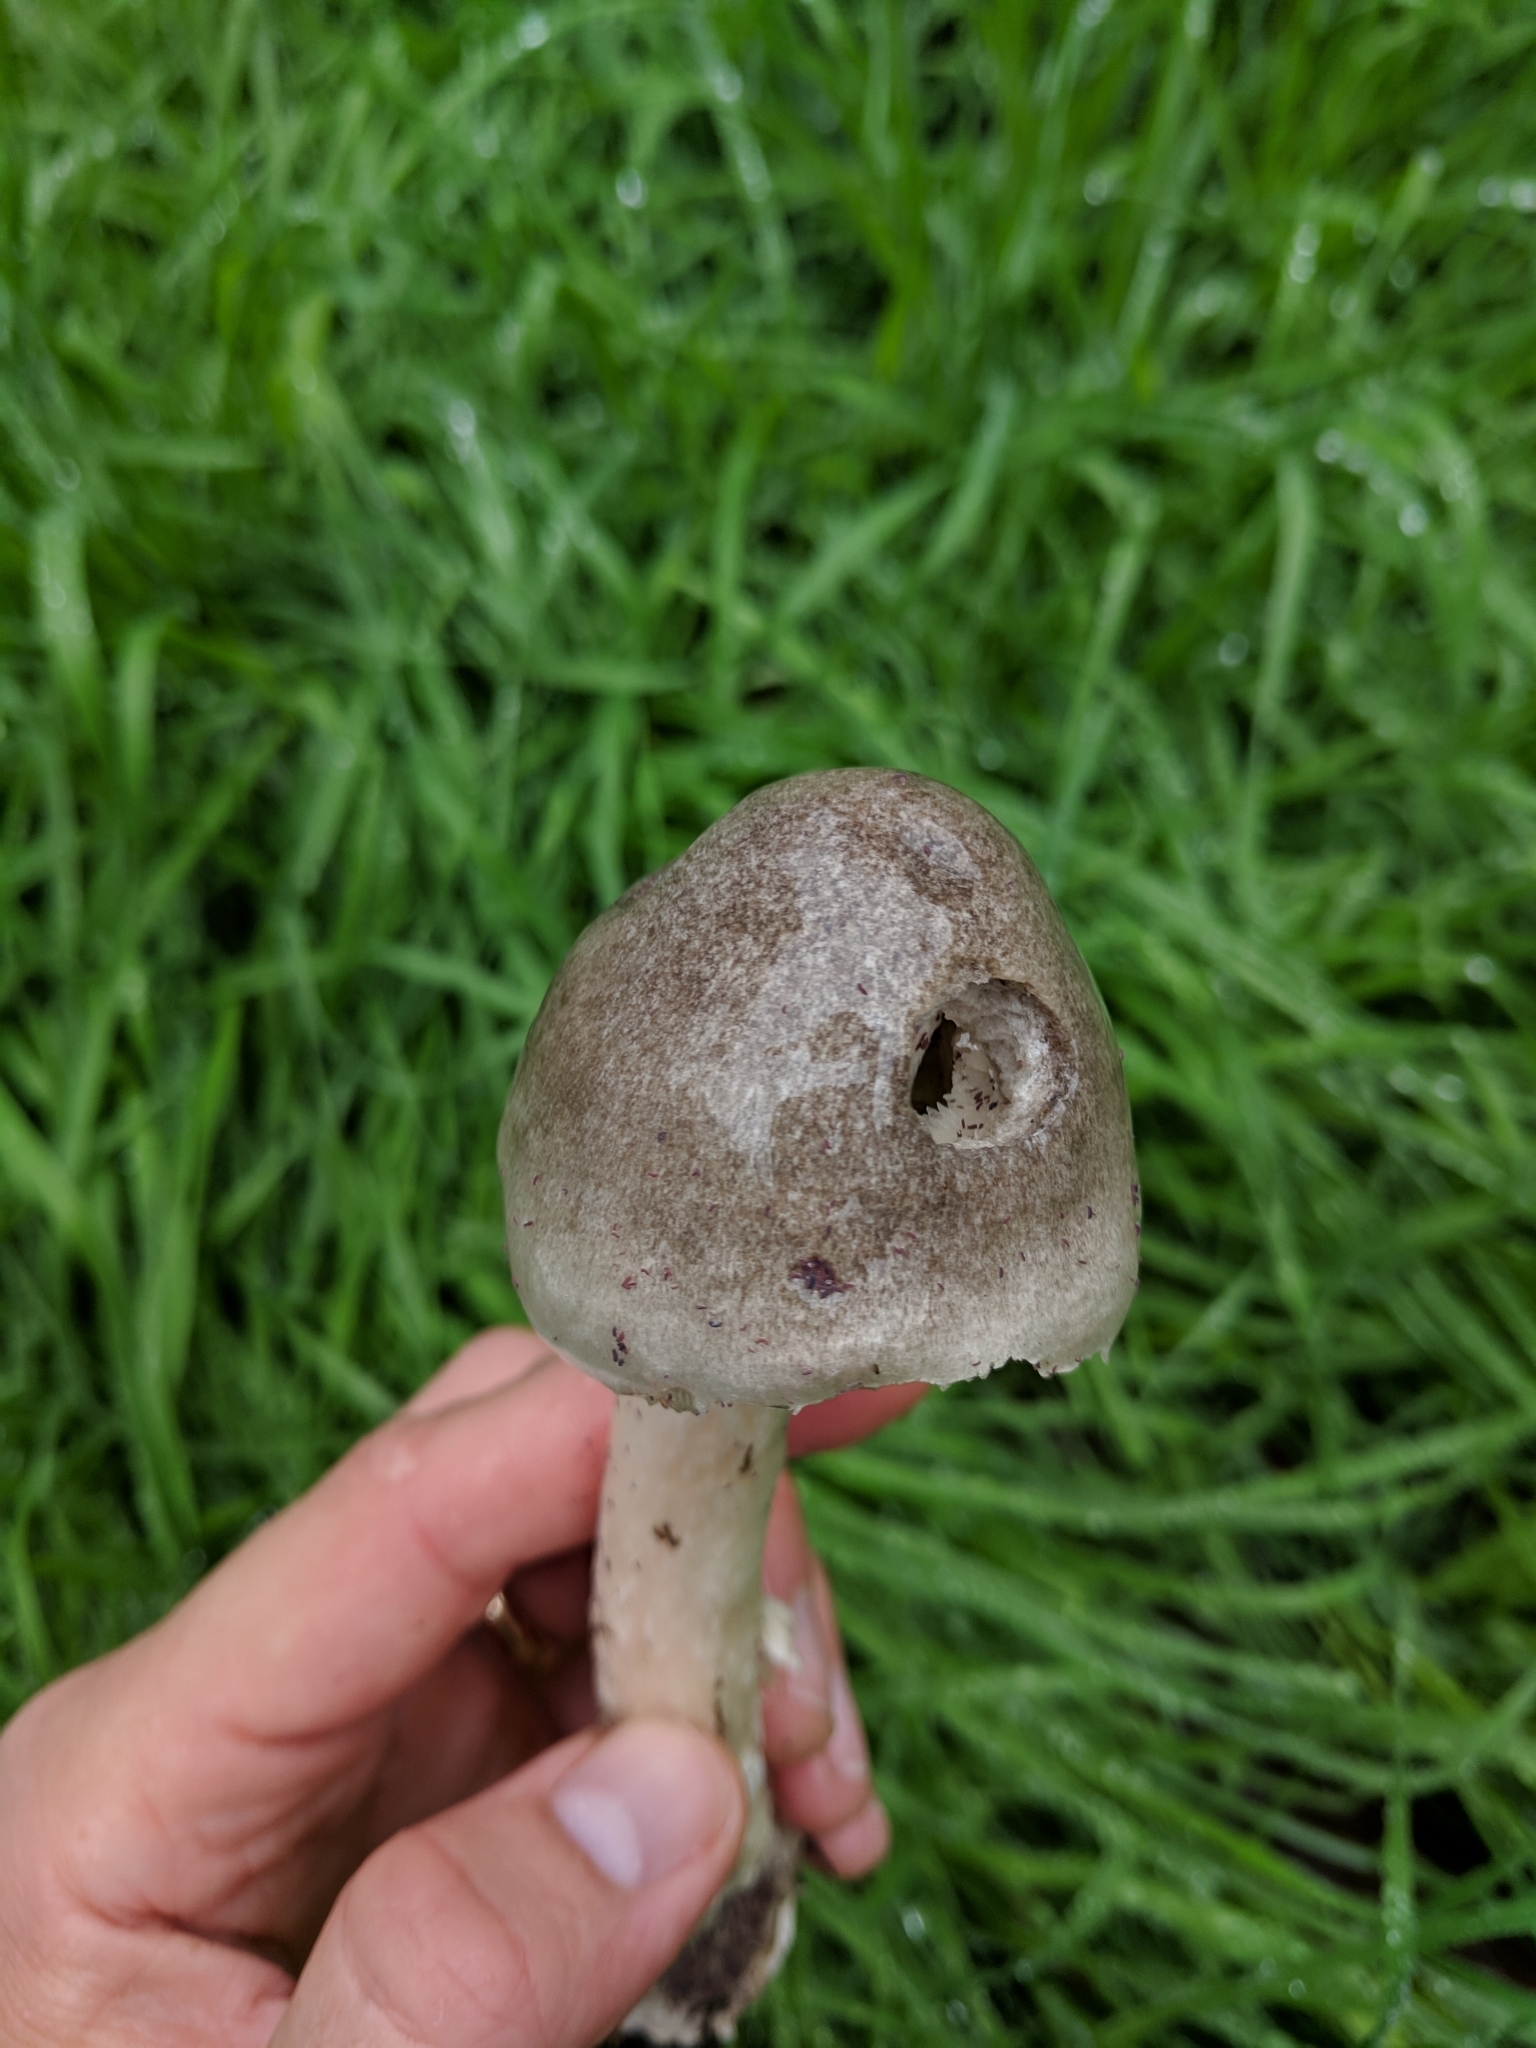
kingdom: Fungi
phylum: Basidiomycota
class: Agaricomycetes
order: Agaricales
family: Pluteaceae
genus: Volvopluteus
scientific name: Volvopluteus gloiocephalus
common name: Stubble rosegill
